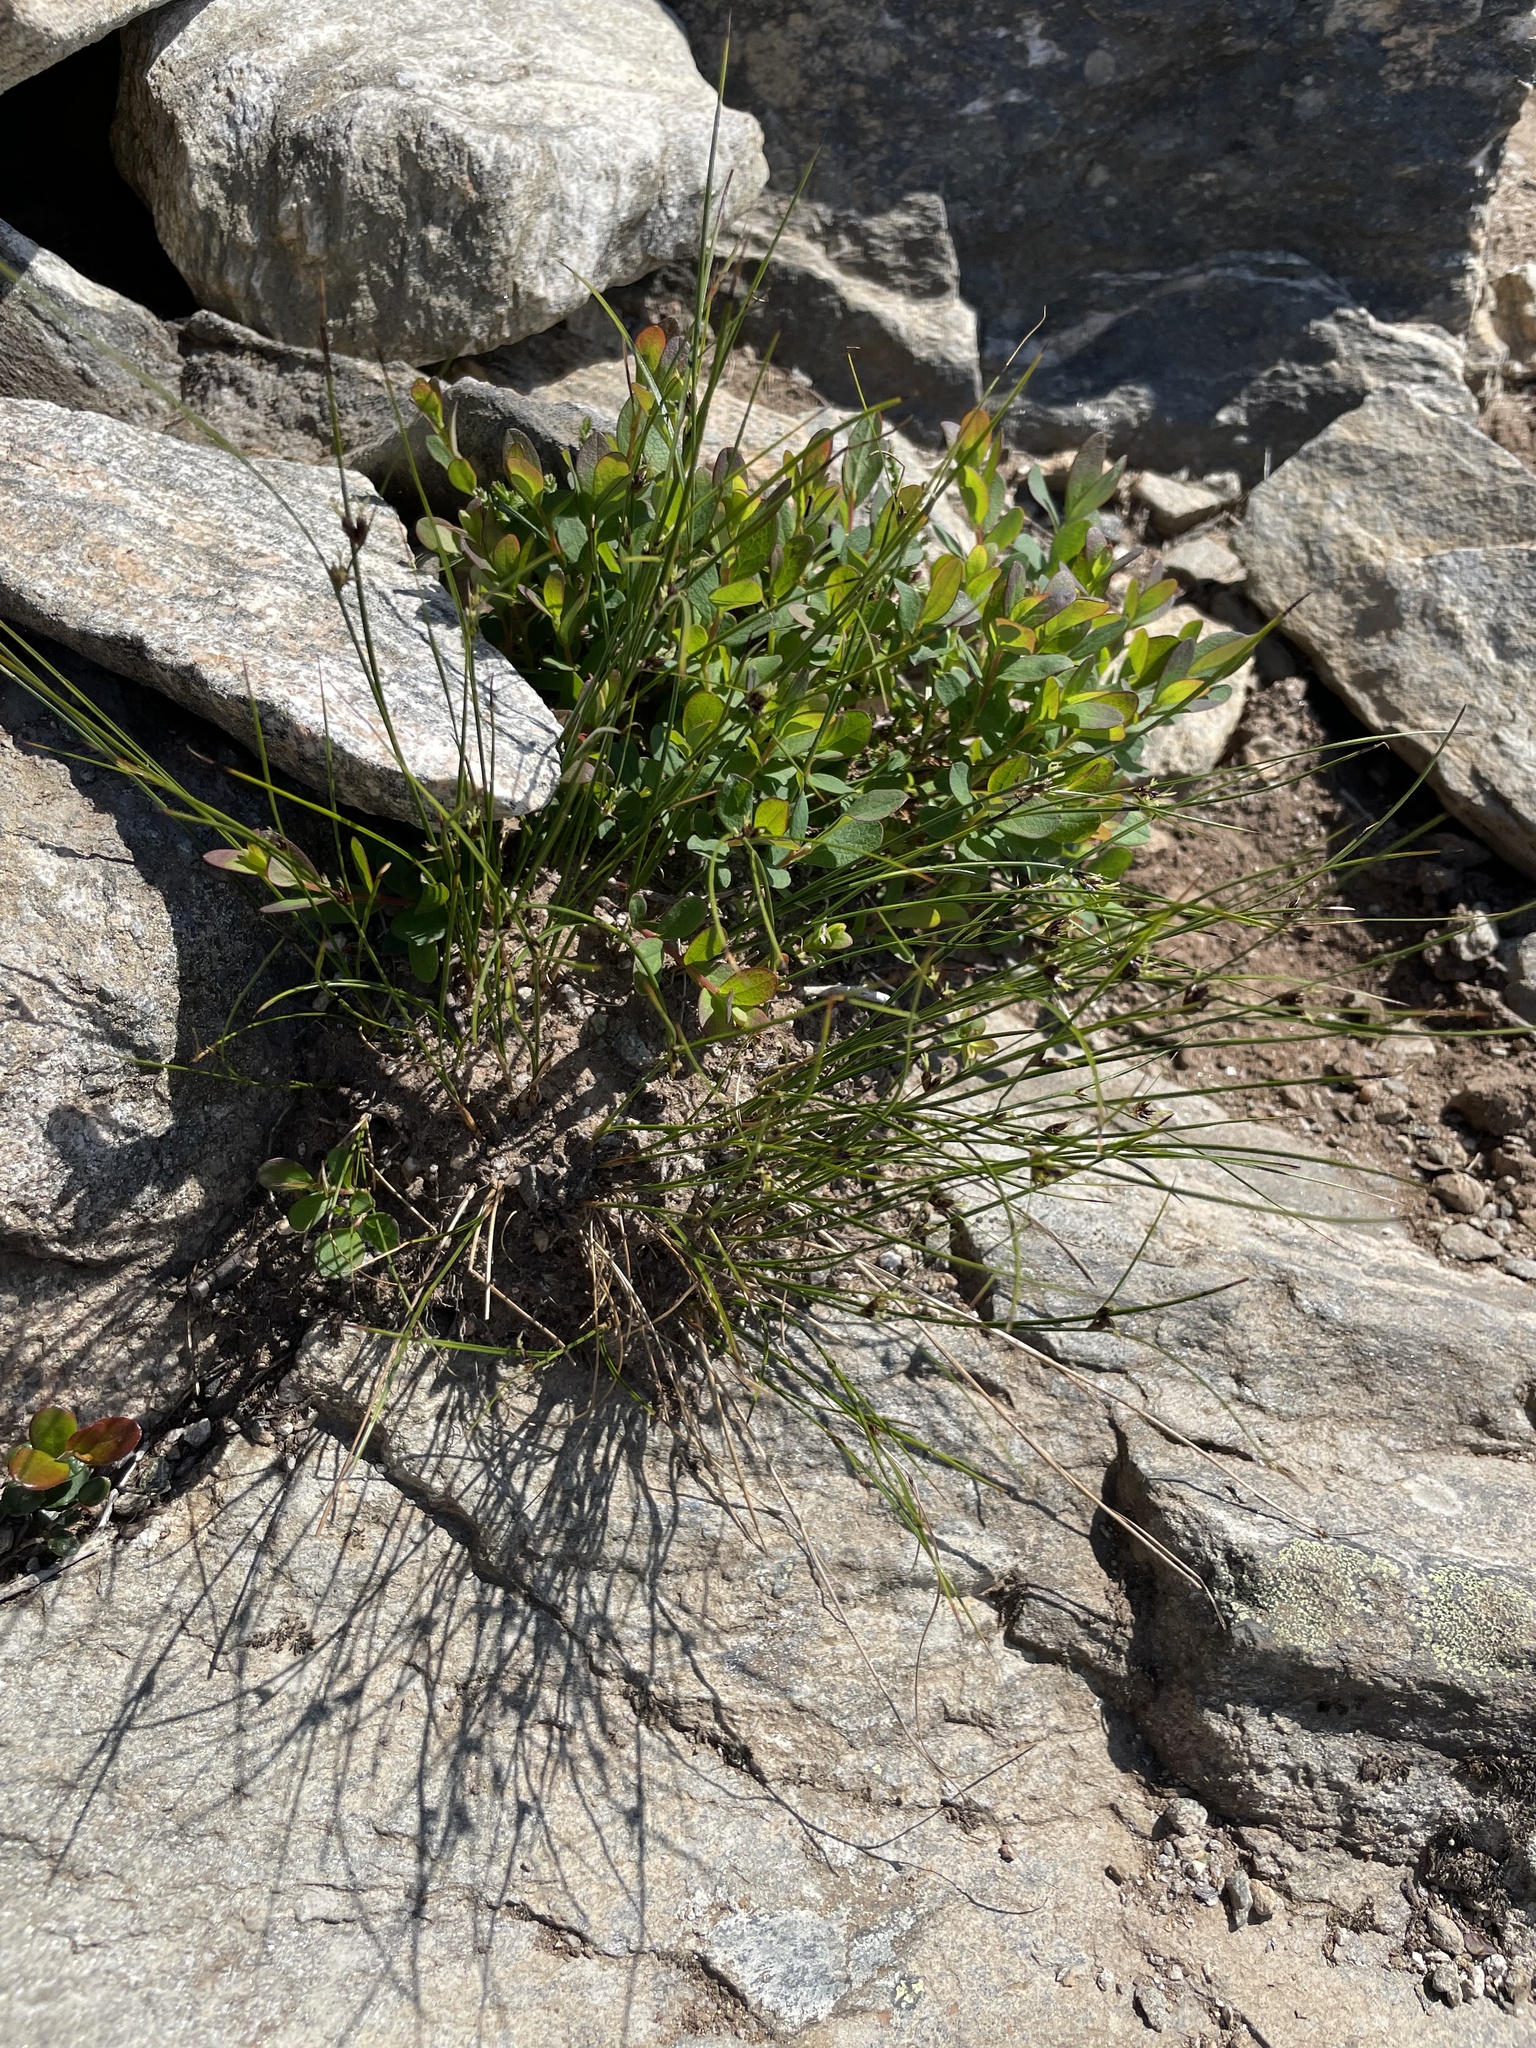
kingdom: Plantae
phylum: Tracheophyta
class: Liliopsida
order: Poales
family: Juncaceae
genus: Oreojuncus
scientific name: Oreojuncus trifidus
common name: Highland rush
